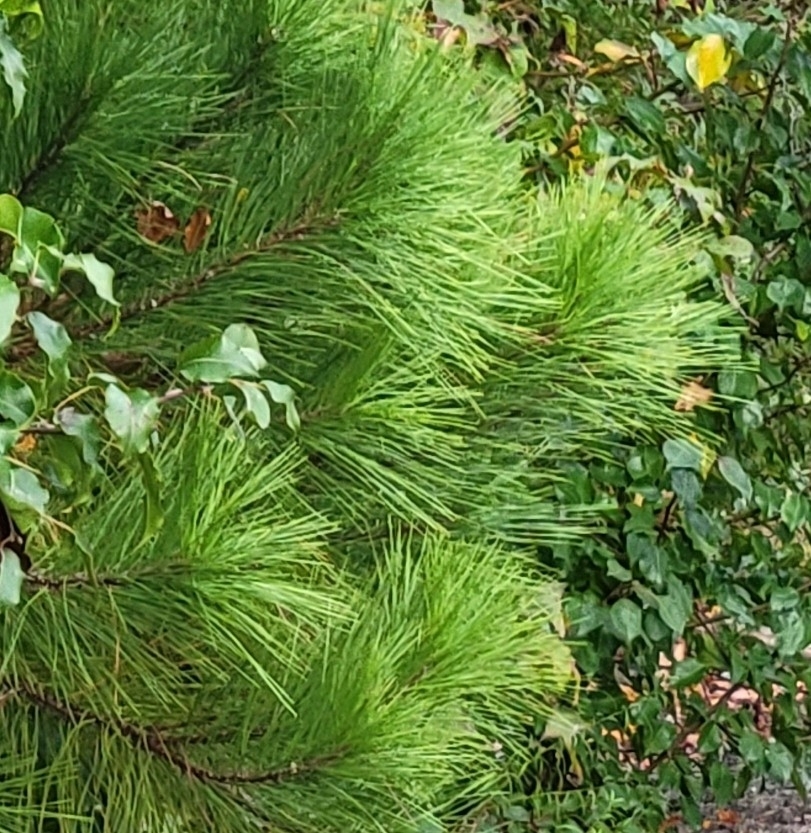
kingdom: Plantae
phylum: Tracheophyta
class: Pinopsida
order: Pinales
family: Pinaceae
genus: Pinus
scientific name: Pinus taeda
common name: Loblolly pine
